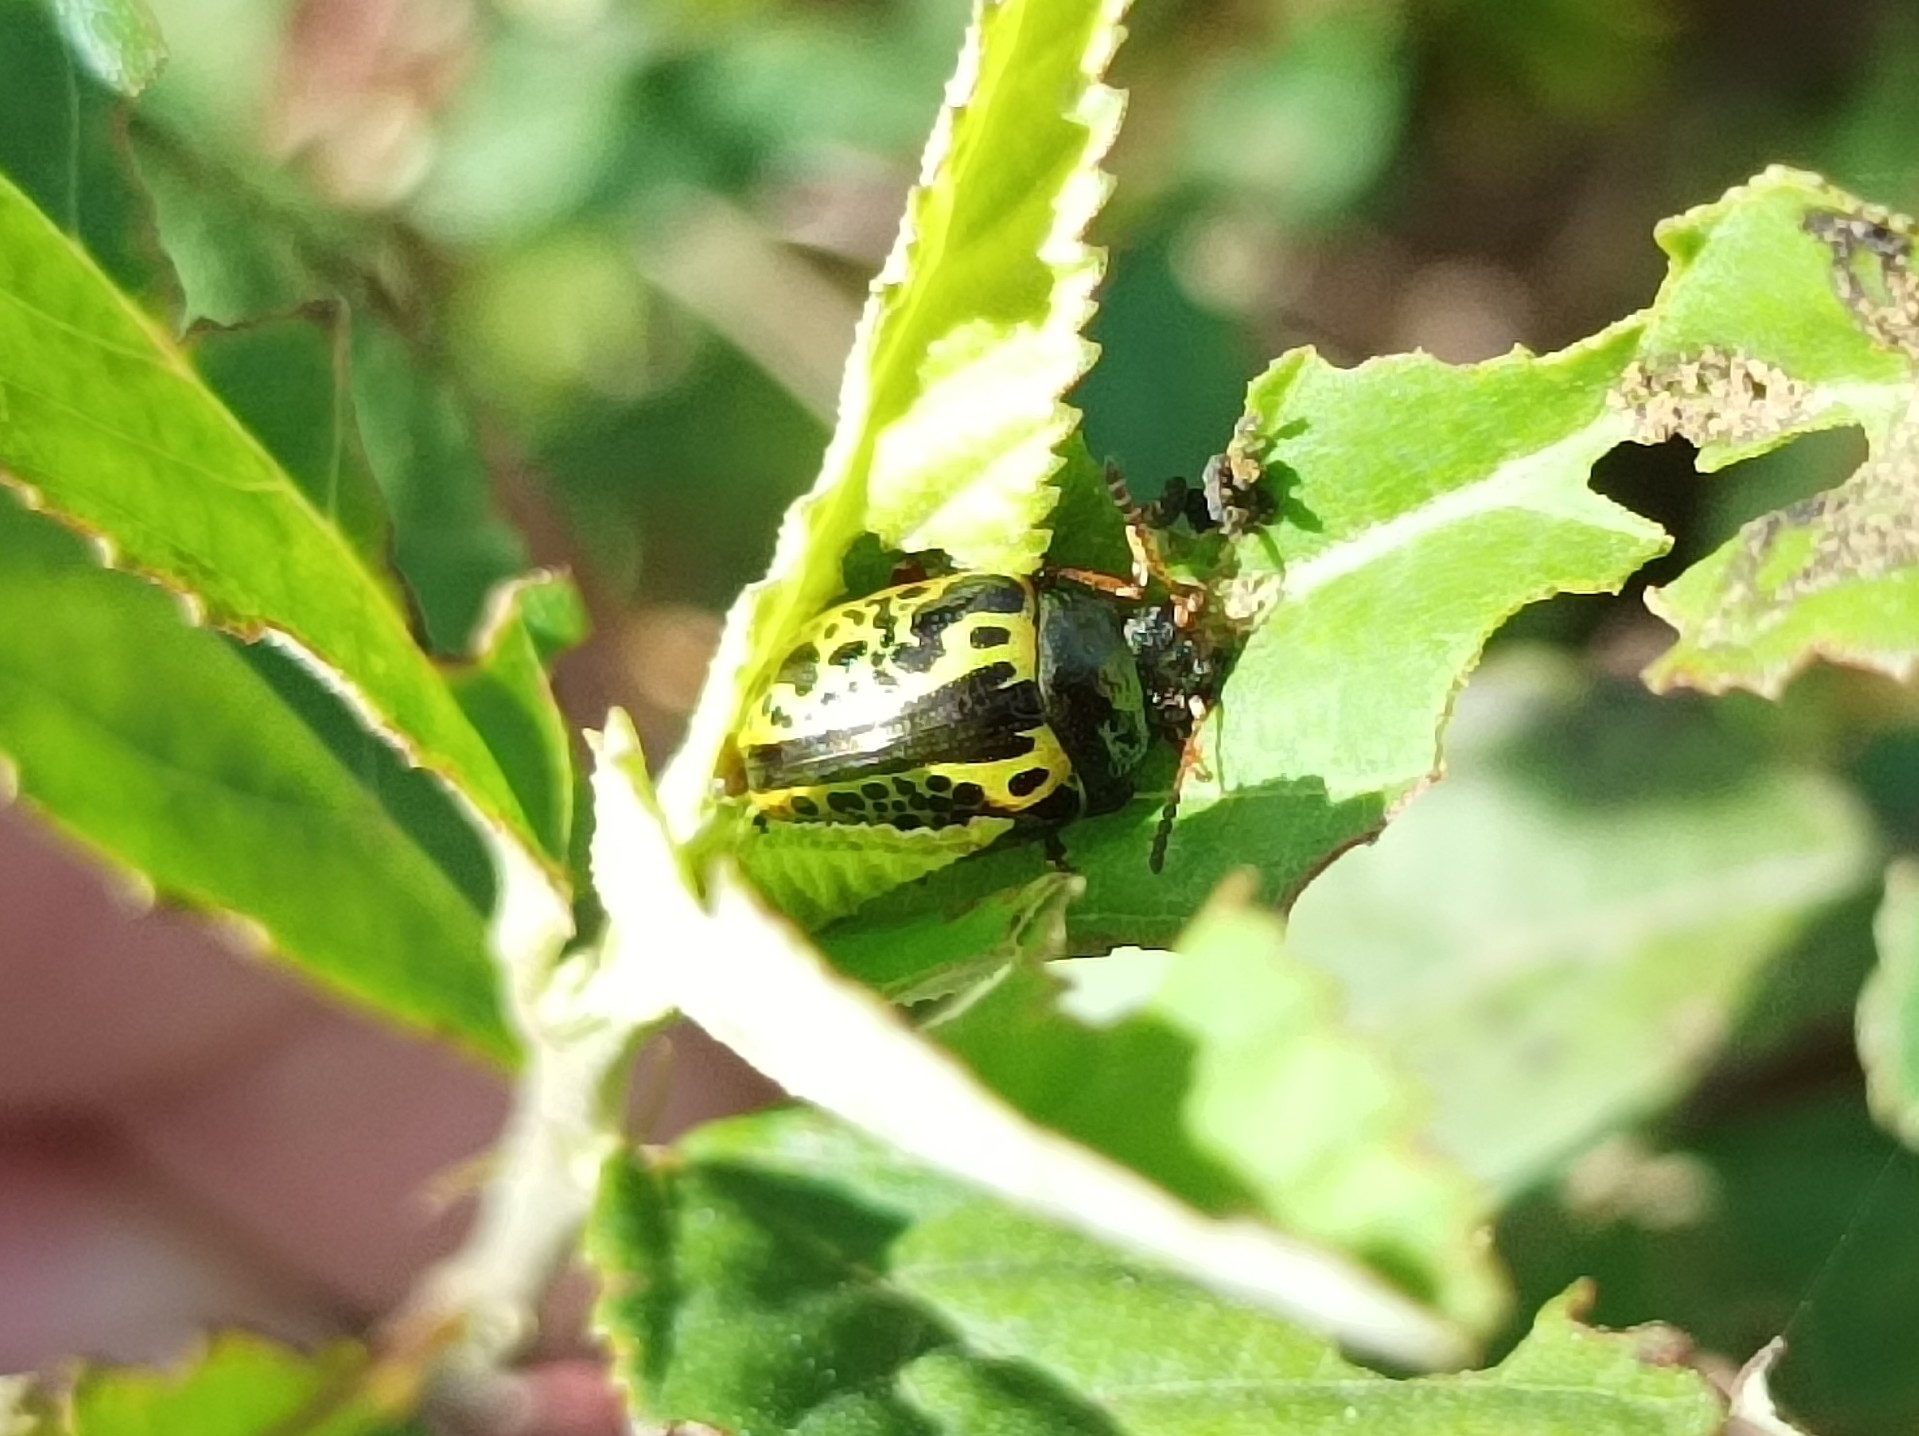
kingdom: Animalia
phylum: Arthropoda
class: Insecta
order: Coleoptera
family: Chrysomelidae
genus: Calligrapha
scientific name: Calligrapha pantherina
